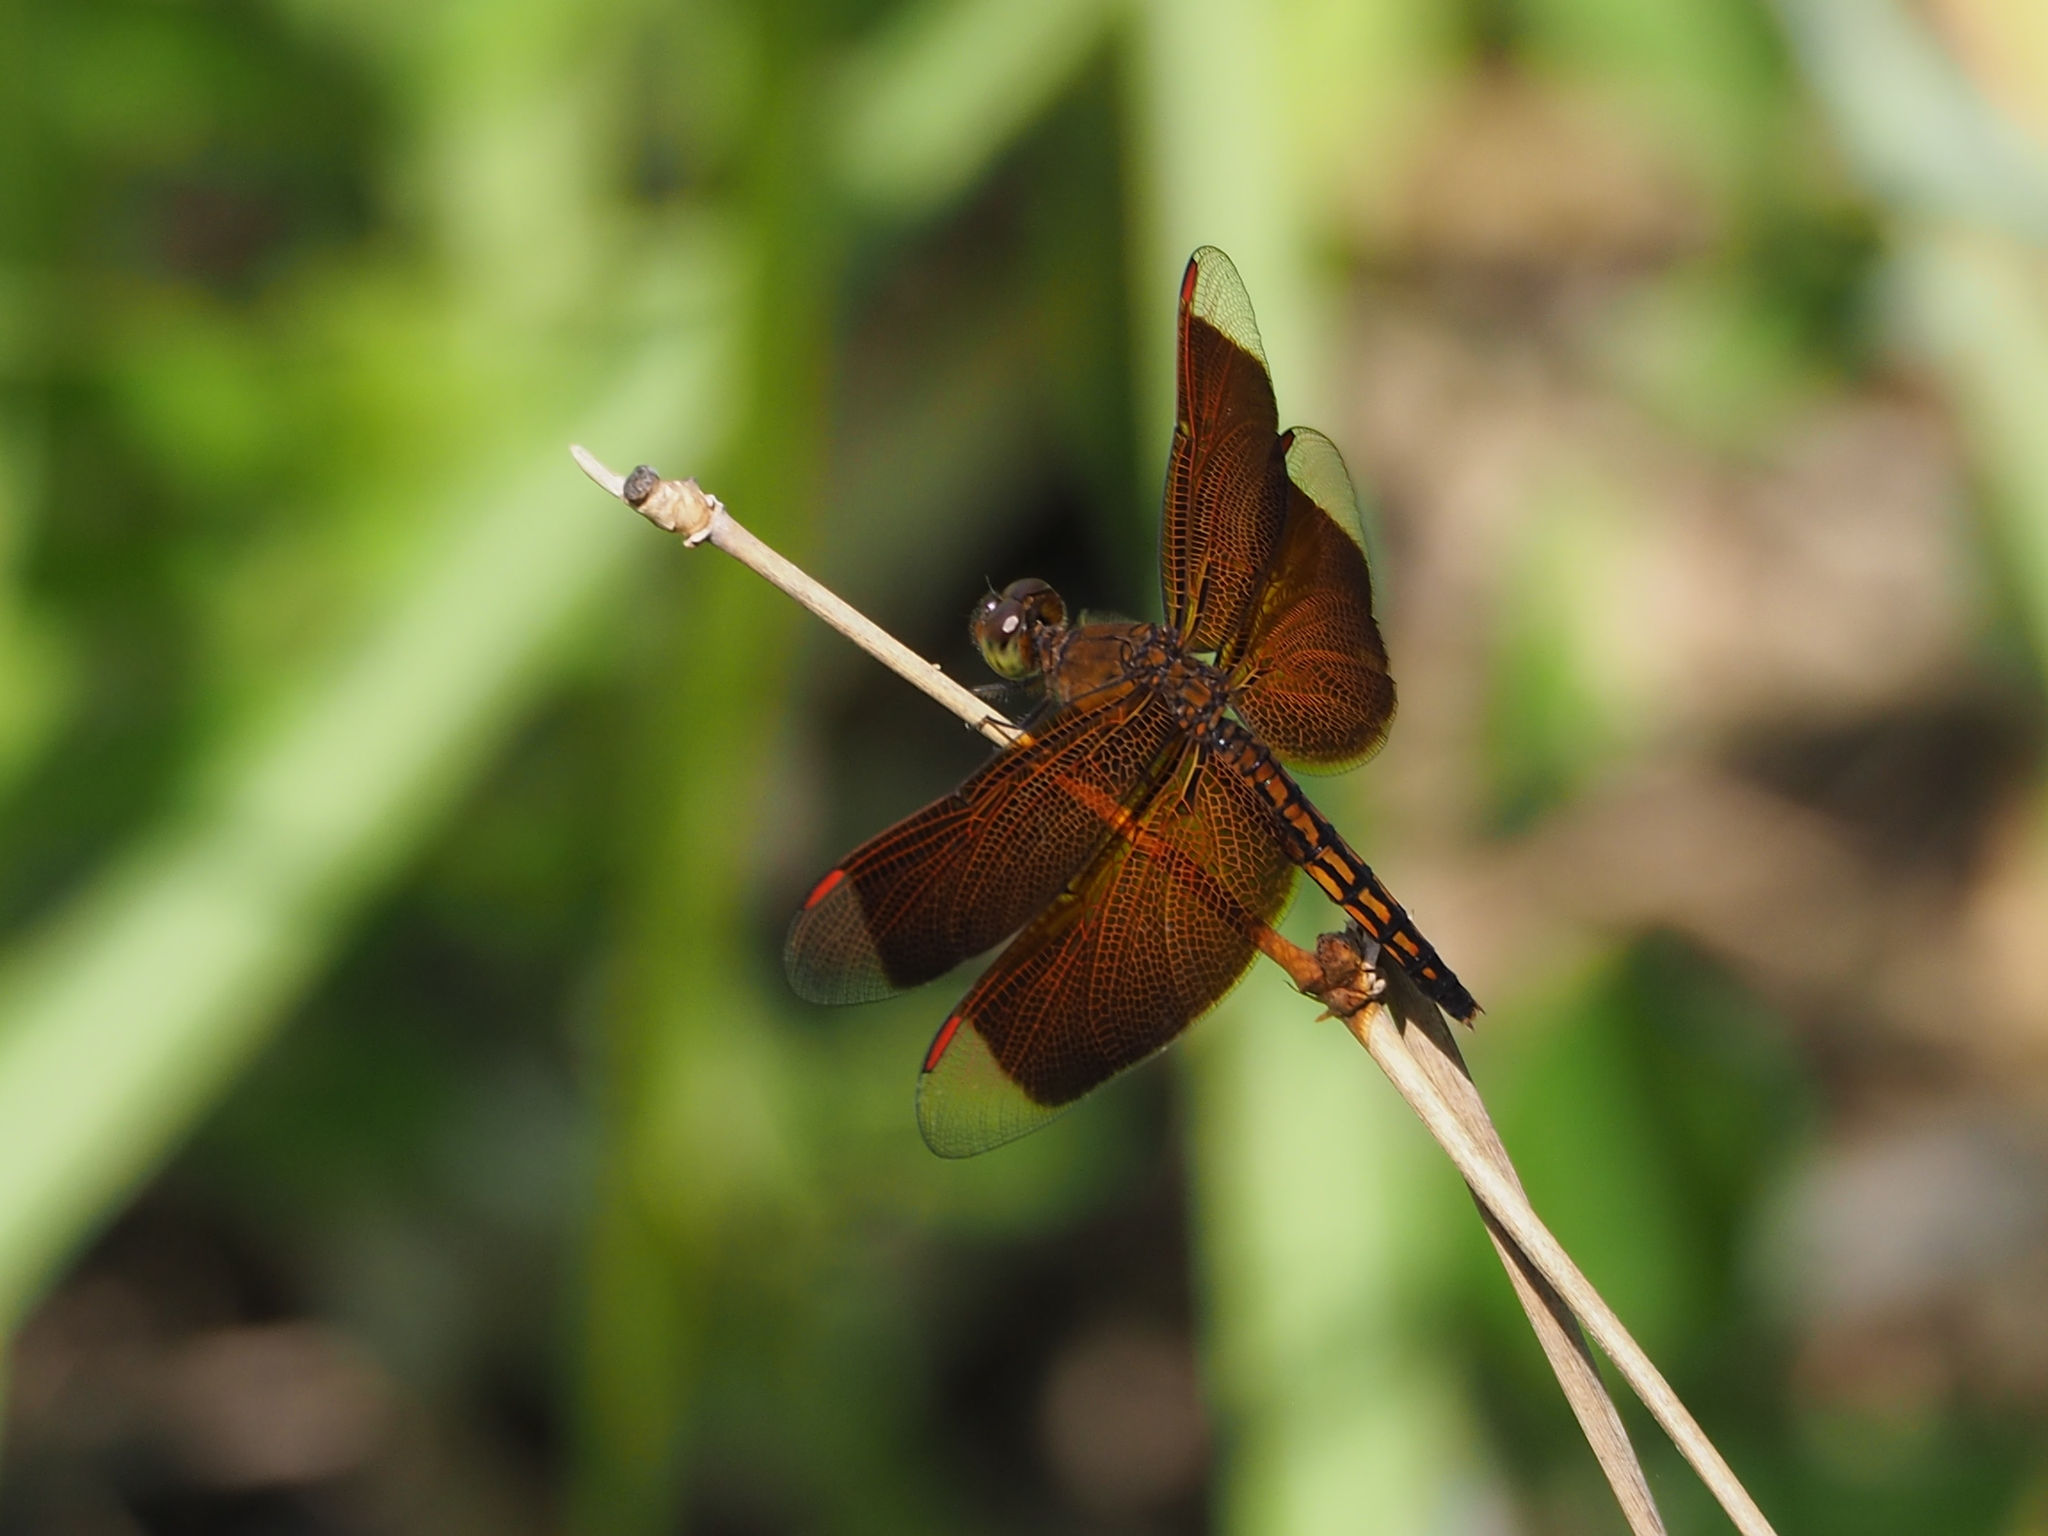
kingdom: Animalia
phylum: Arthropoda
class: Insecta
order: Odonata
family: Libellulidae
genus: Neurothemis
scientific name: Neurothemis taiwanensis
